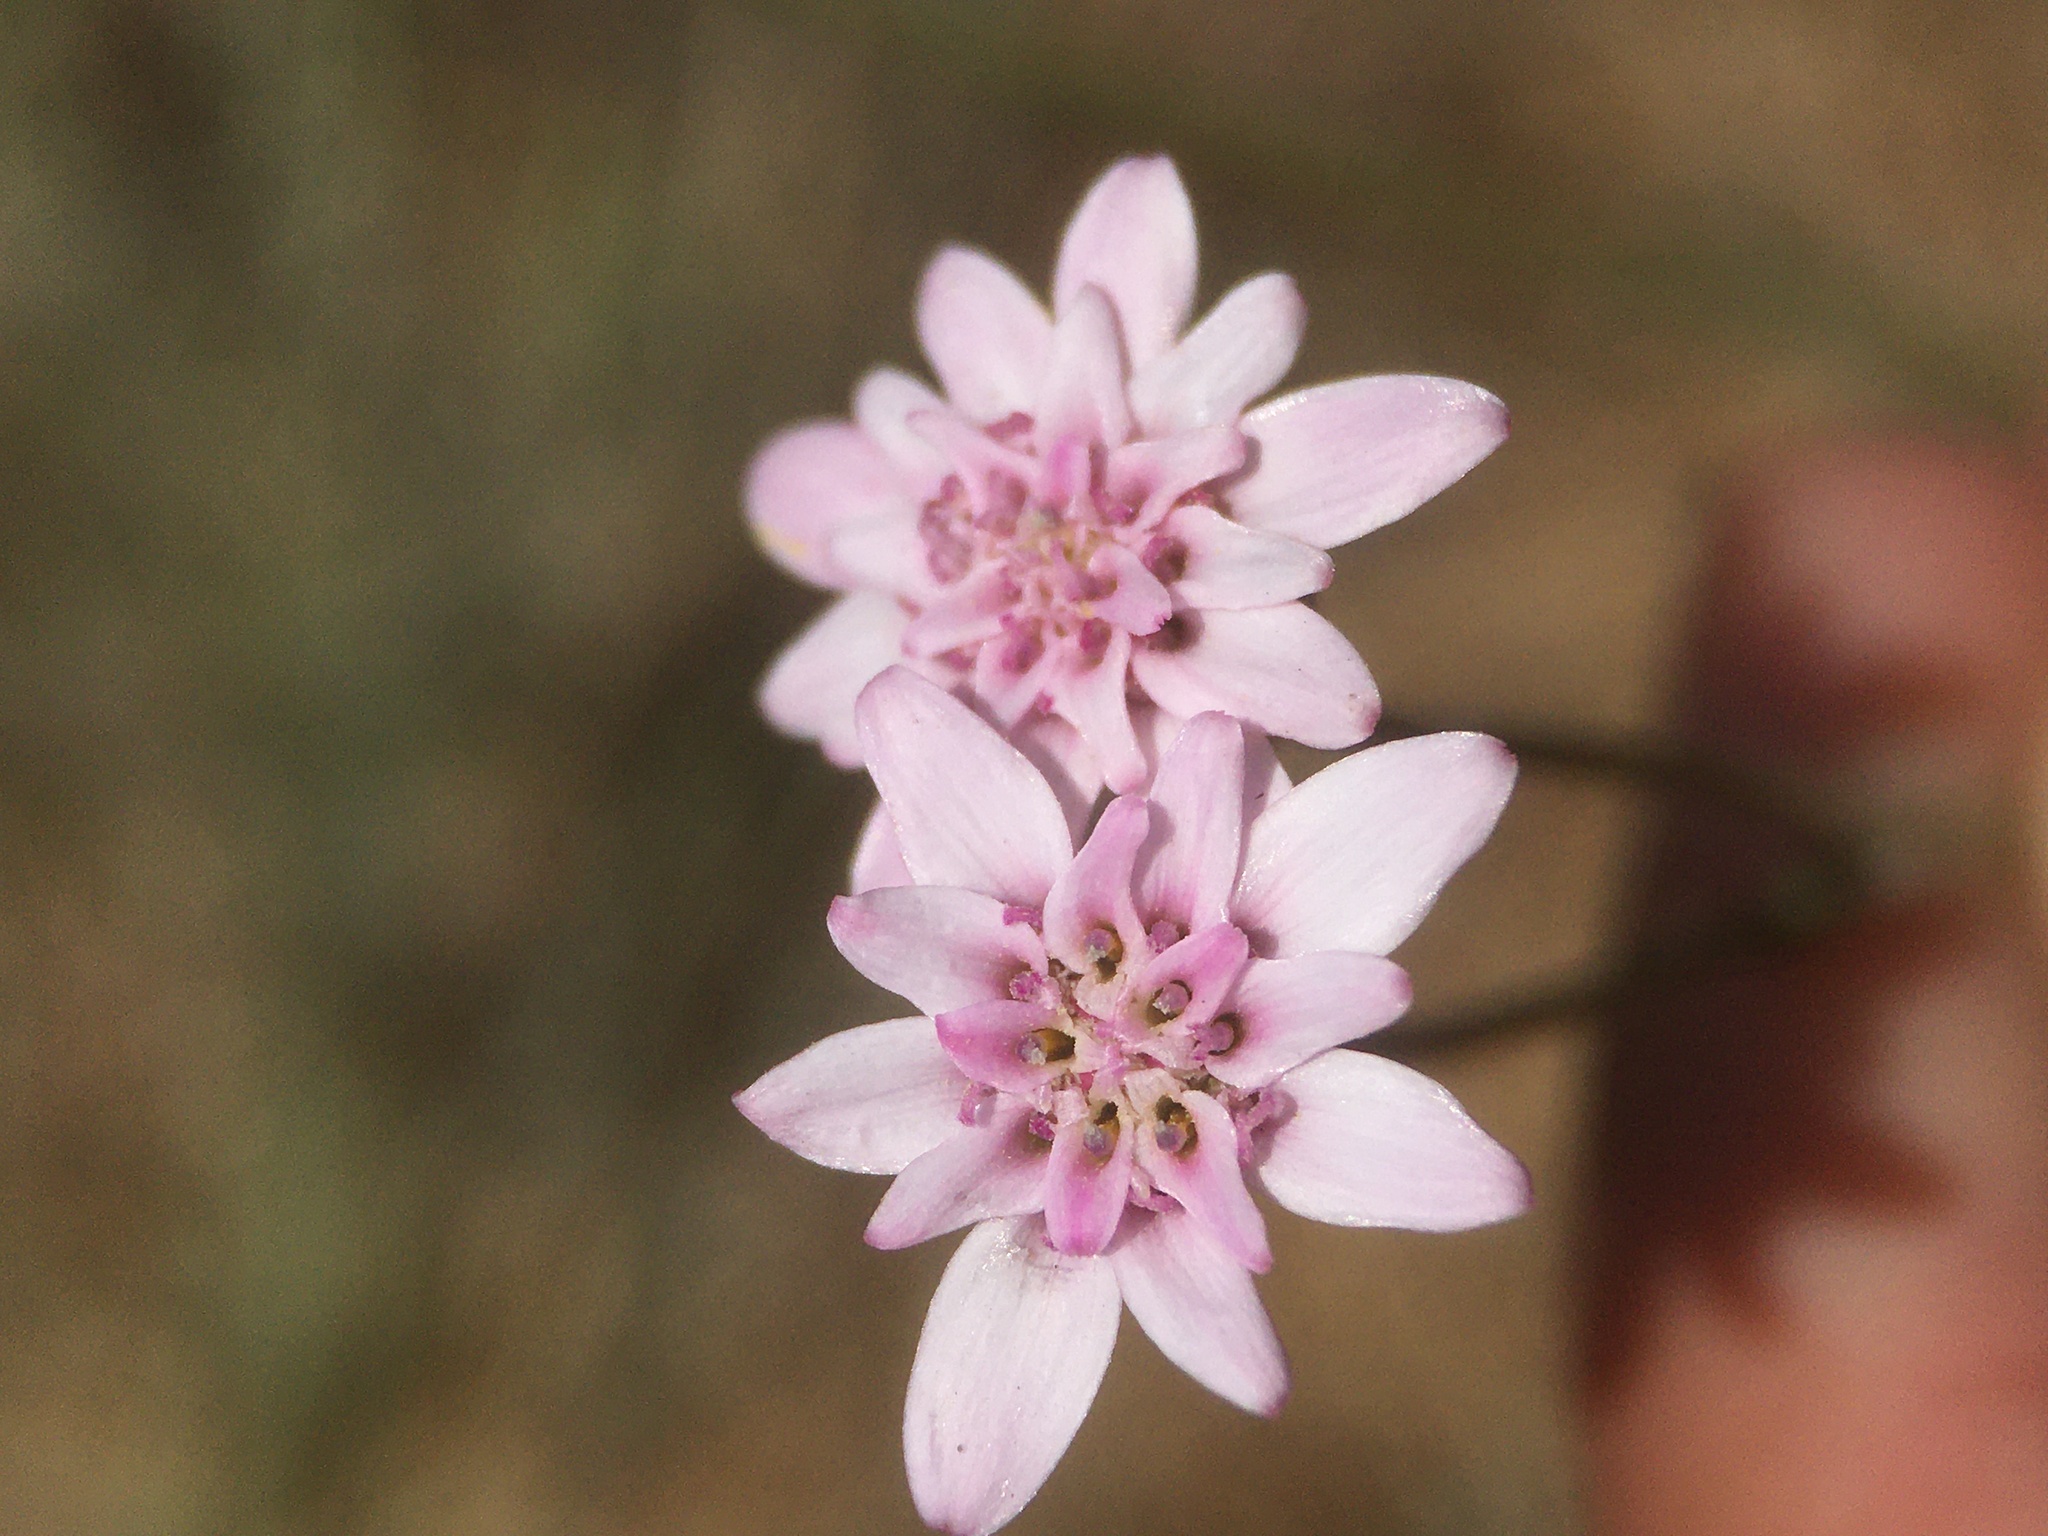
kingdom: Plantae
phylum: Tracheophyta
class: Magnoliopsida
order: Asterales
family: Asteraceae
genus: Leucheria
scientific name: Leucheria rosea
